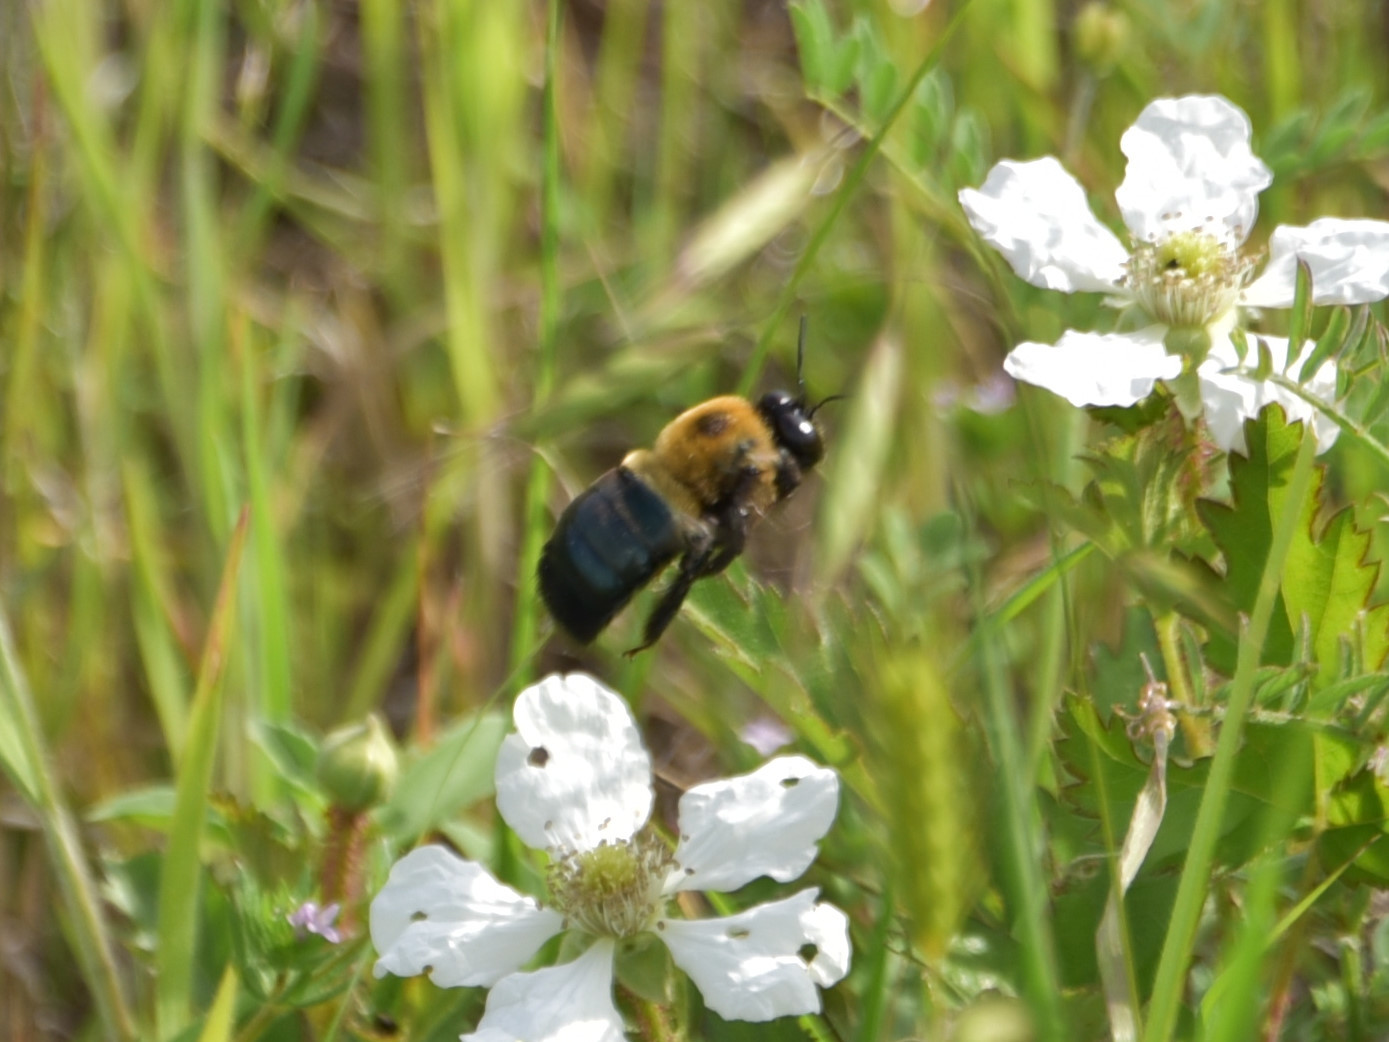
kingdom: Animalia
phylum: Arthropoda
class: Insecta
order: Hymenoptera
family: Apidae
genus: Xylocopa
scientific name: Xylocopa virginica
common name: Carpenter bee
